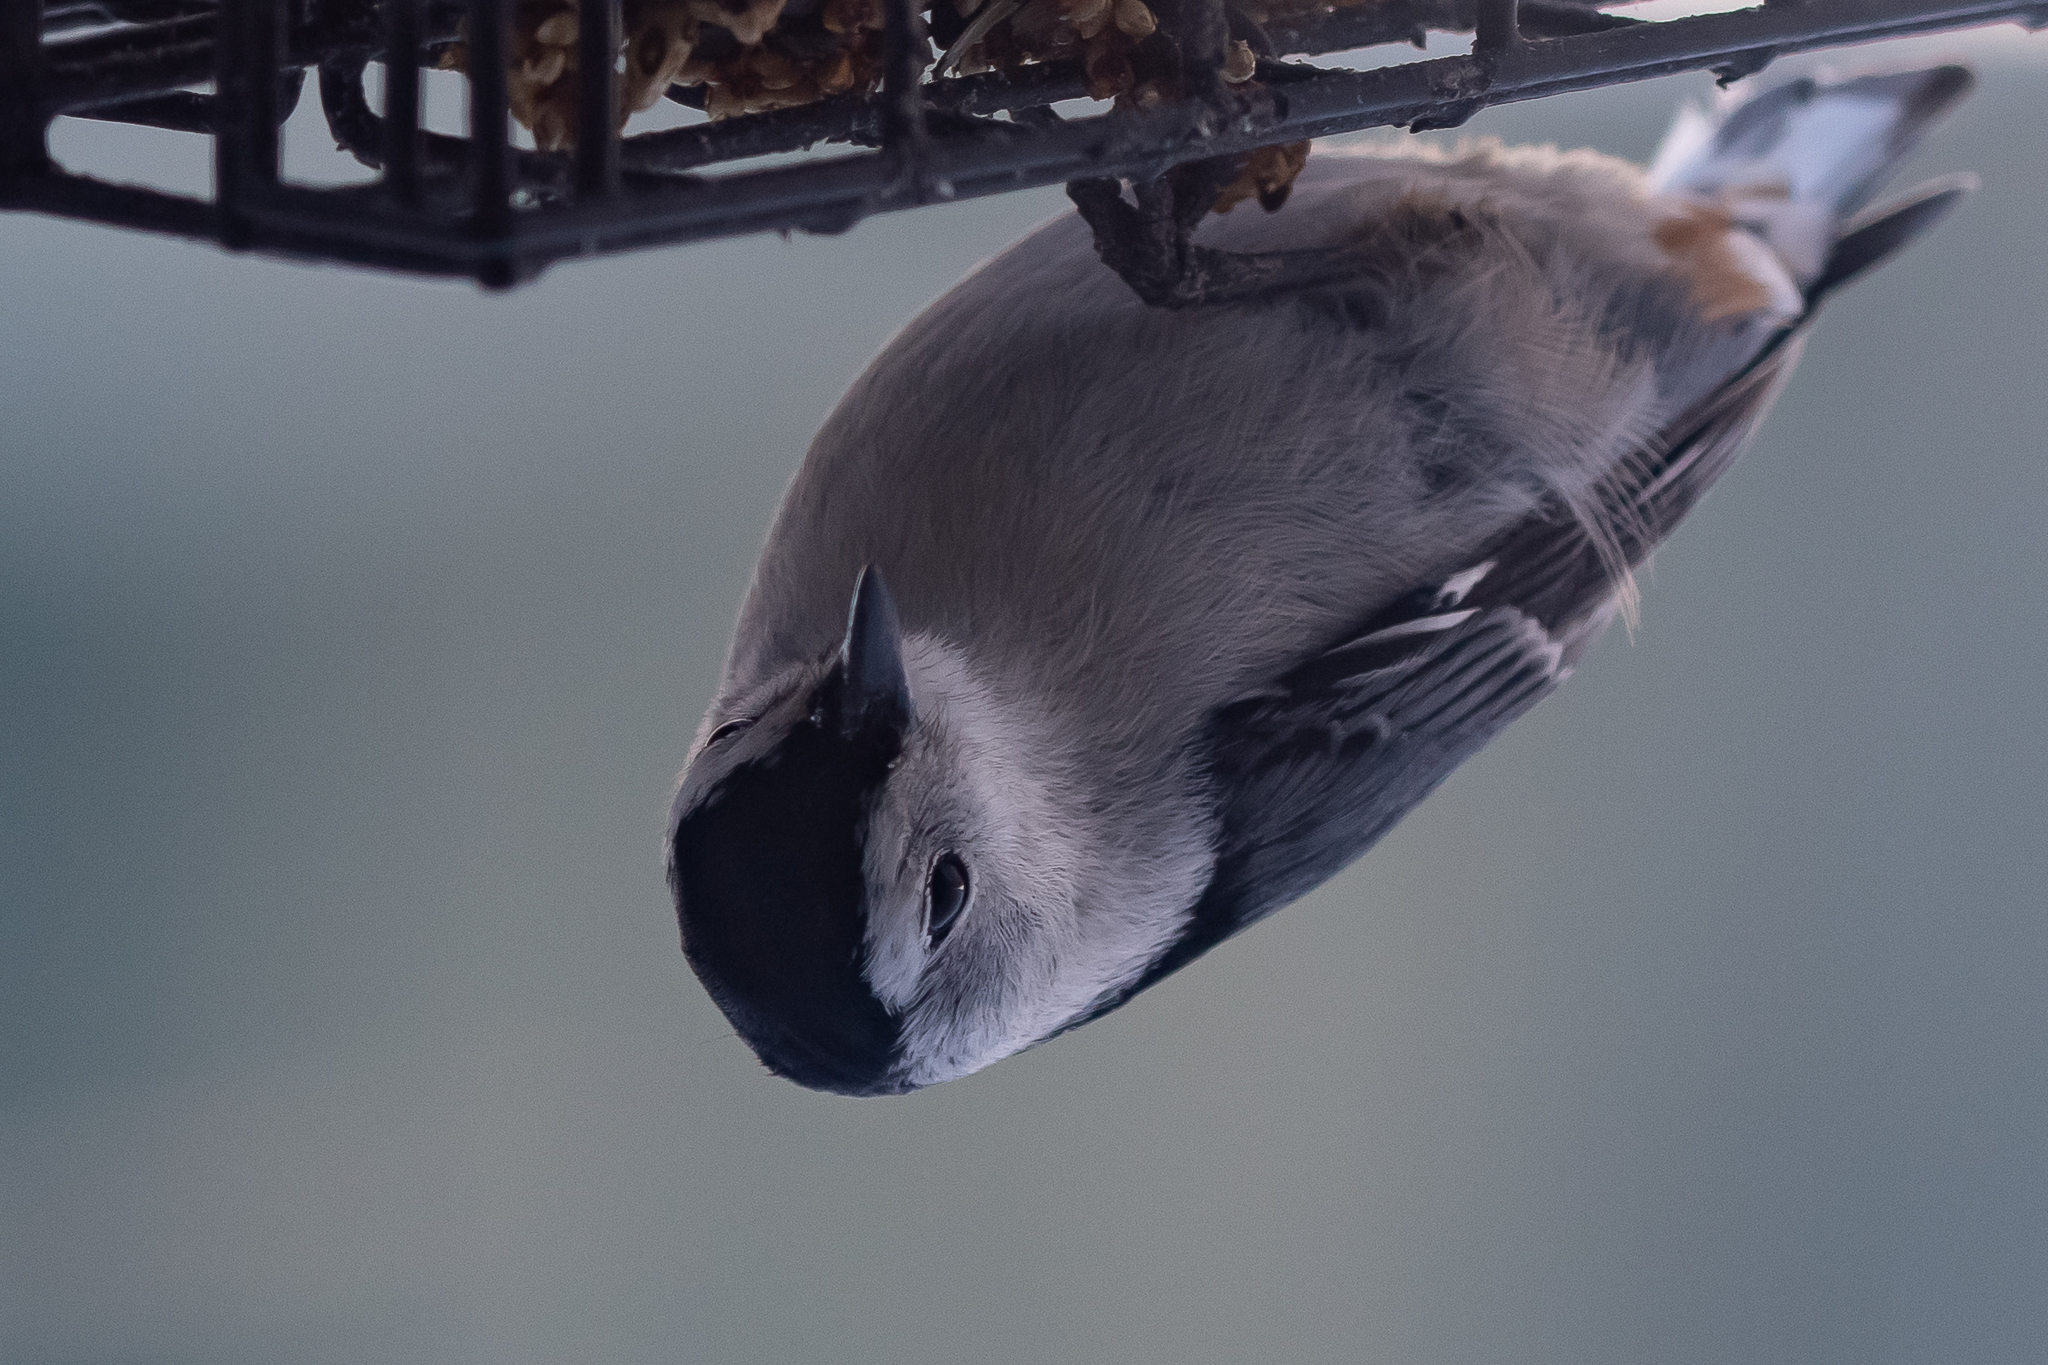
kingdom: Animalia
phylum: Chordata
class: Aves
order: Passeriformes
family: Sittidae
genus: Sitta
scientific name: Sitta carolinensis
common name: White-breasted nuthatch
